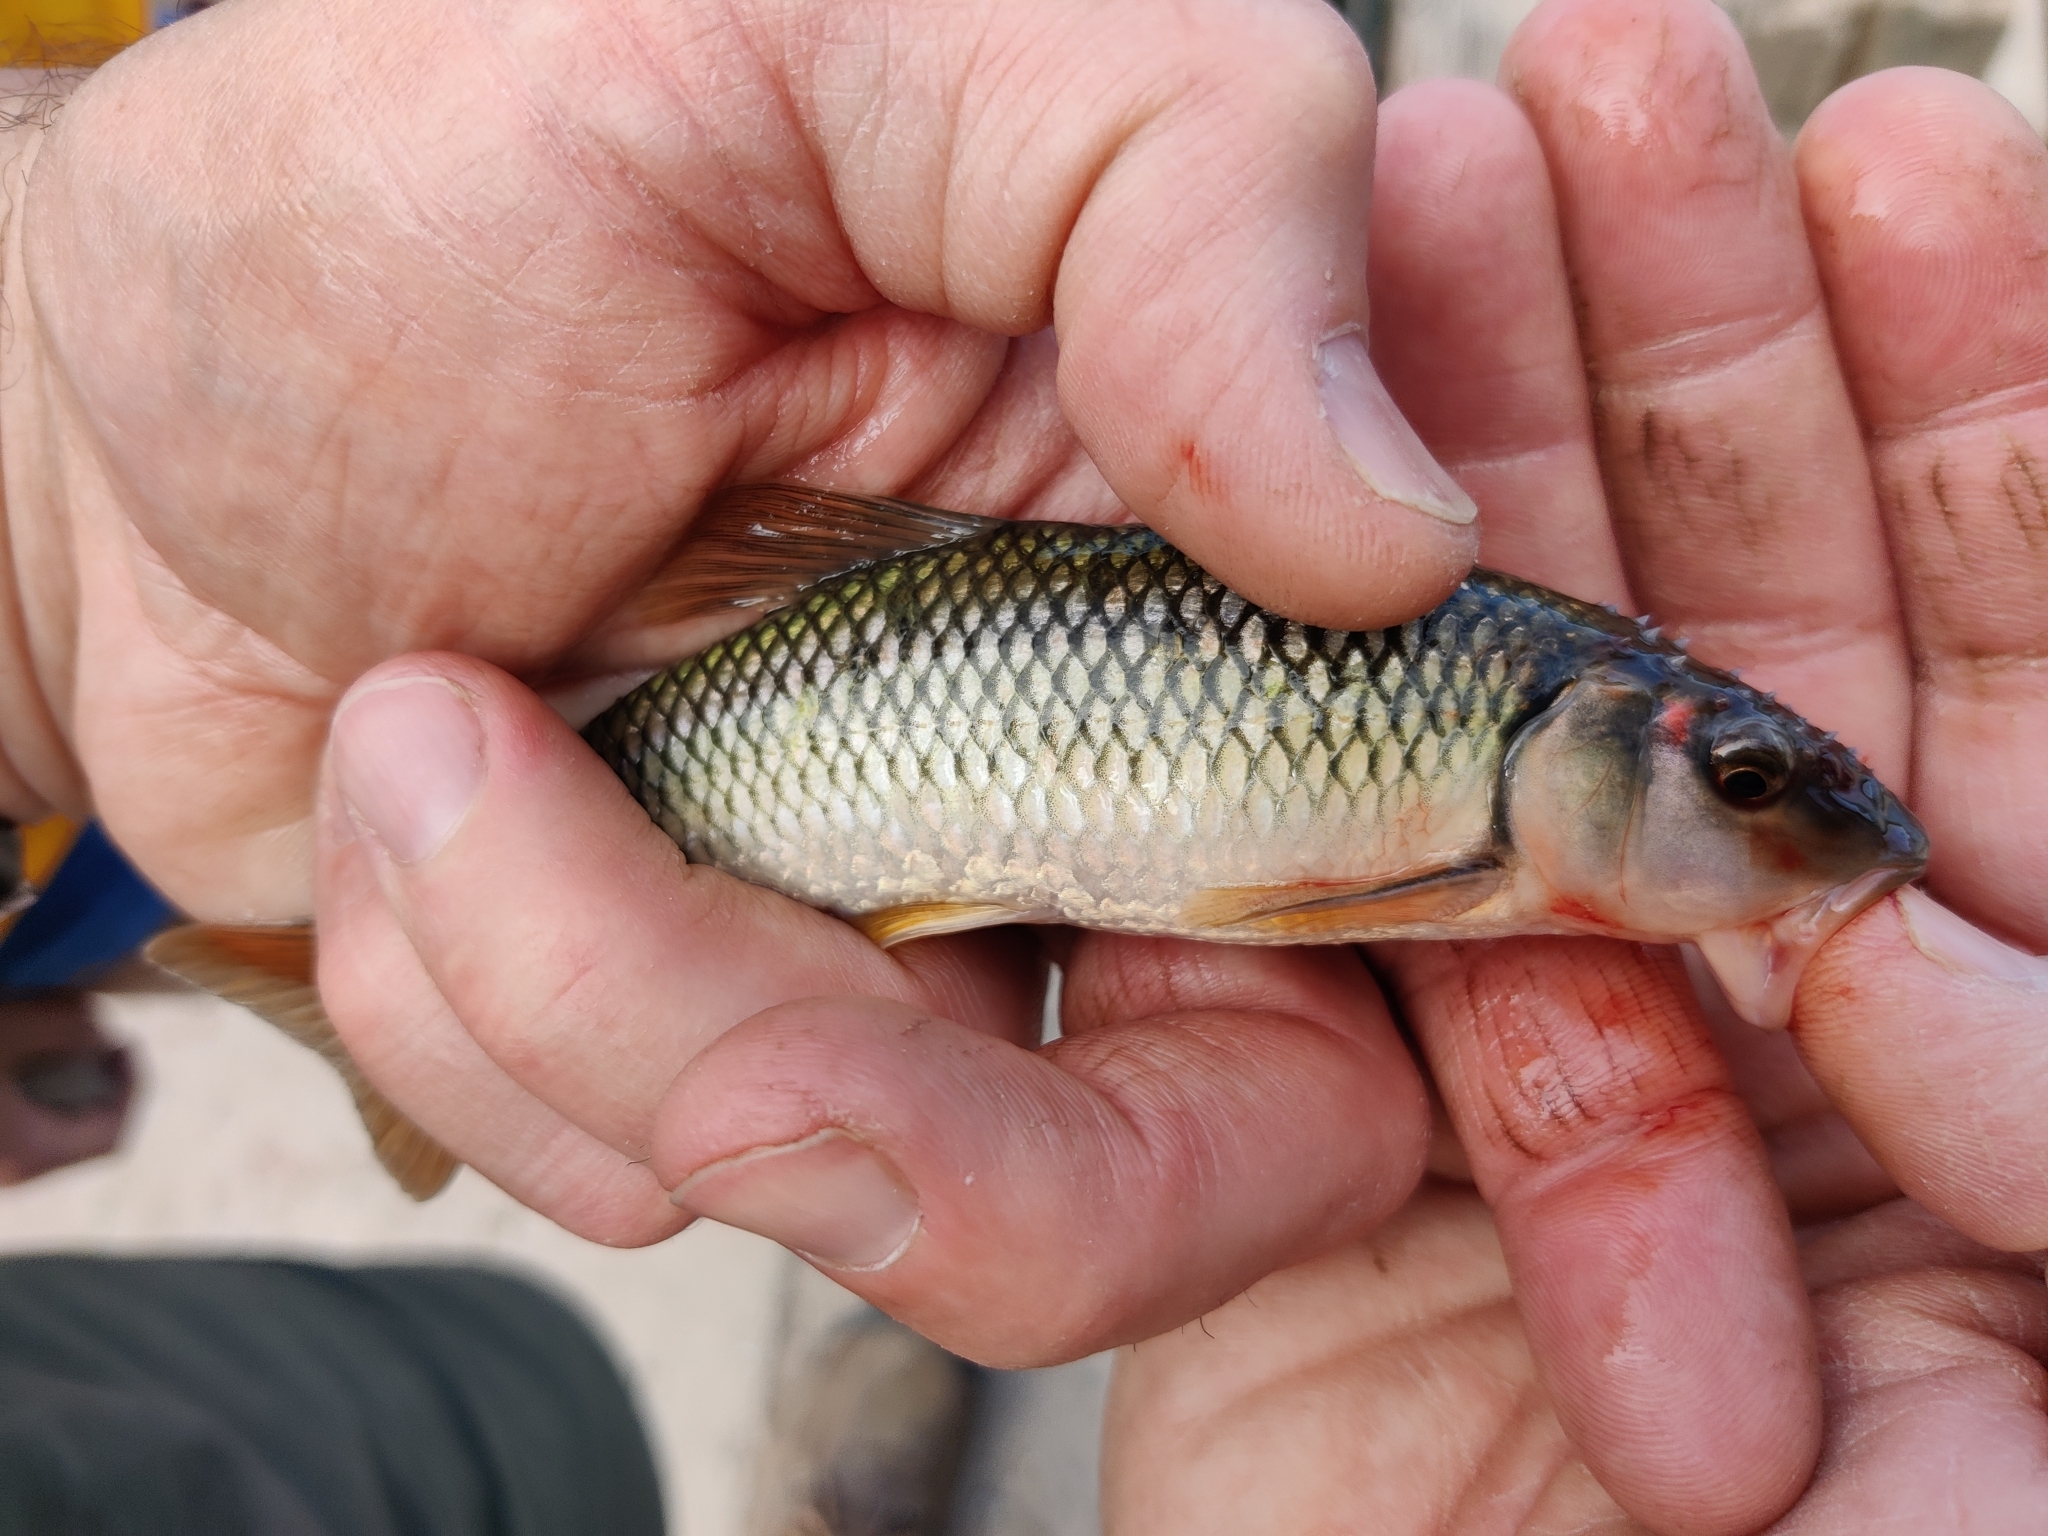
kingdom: Animalia
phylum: Chordata
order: Cypriniformes
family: Cyprinidae
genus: Nocomis
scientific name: Nocomis biguttatus
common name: Hornyhead chub
